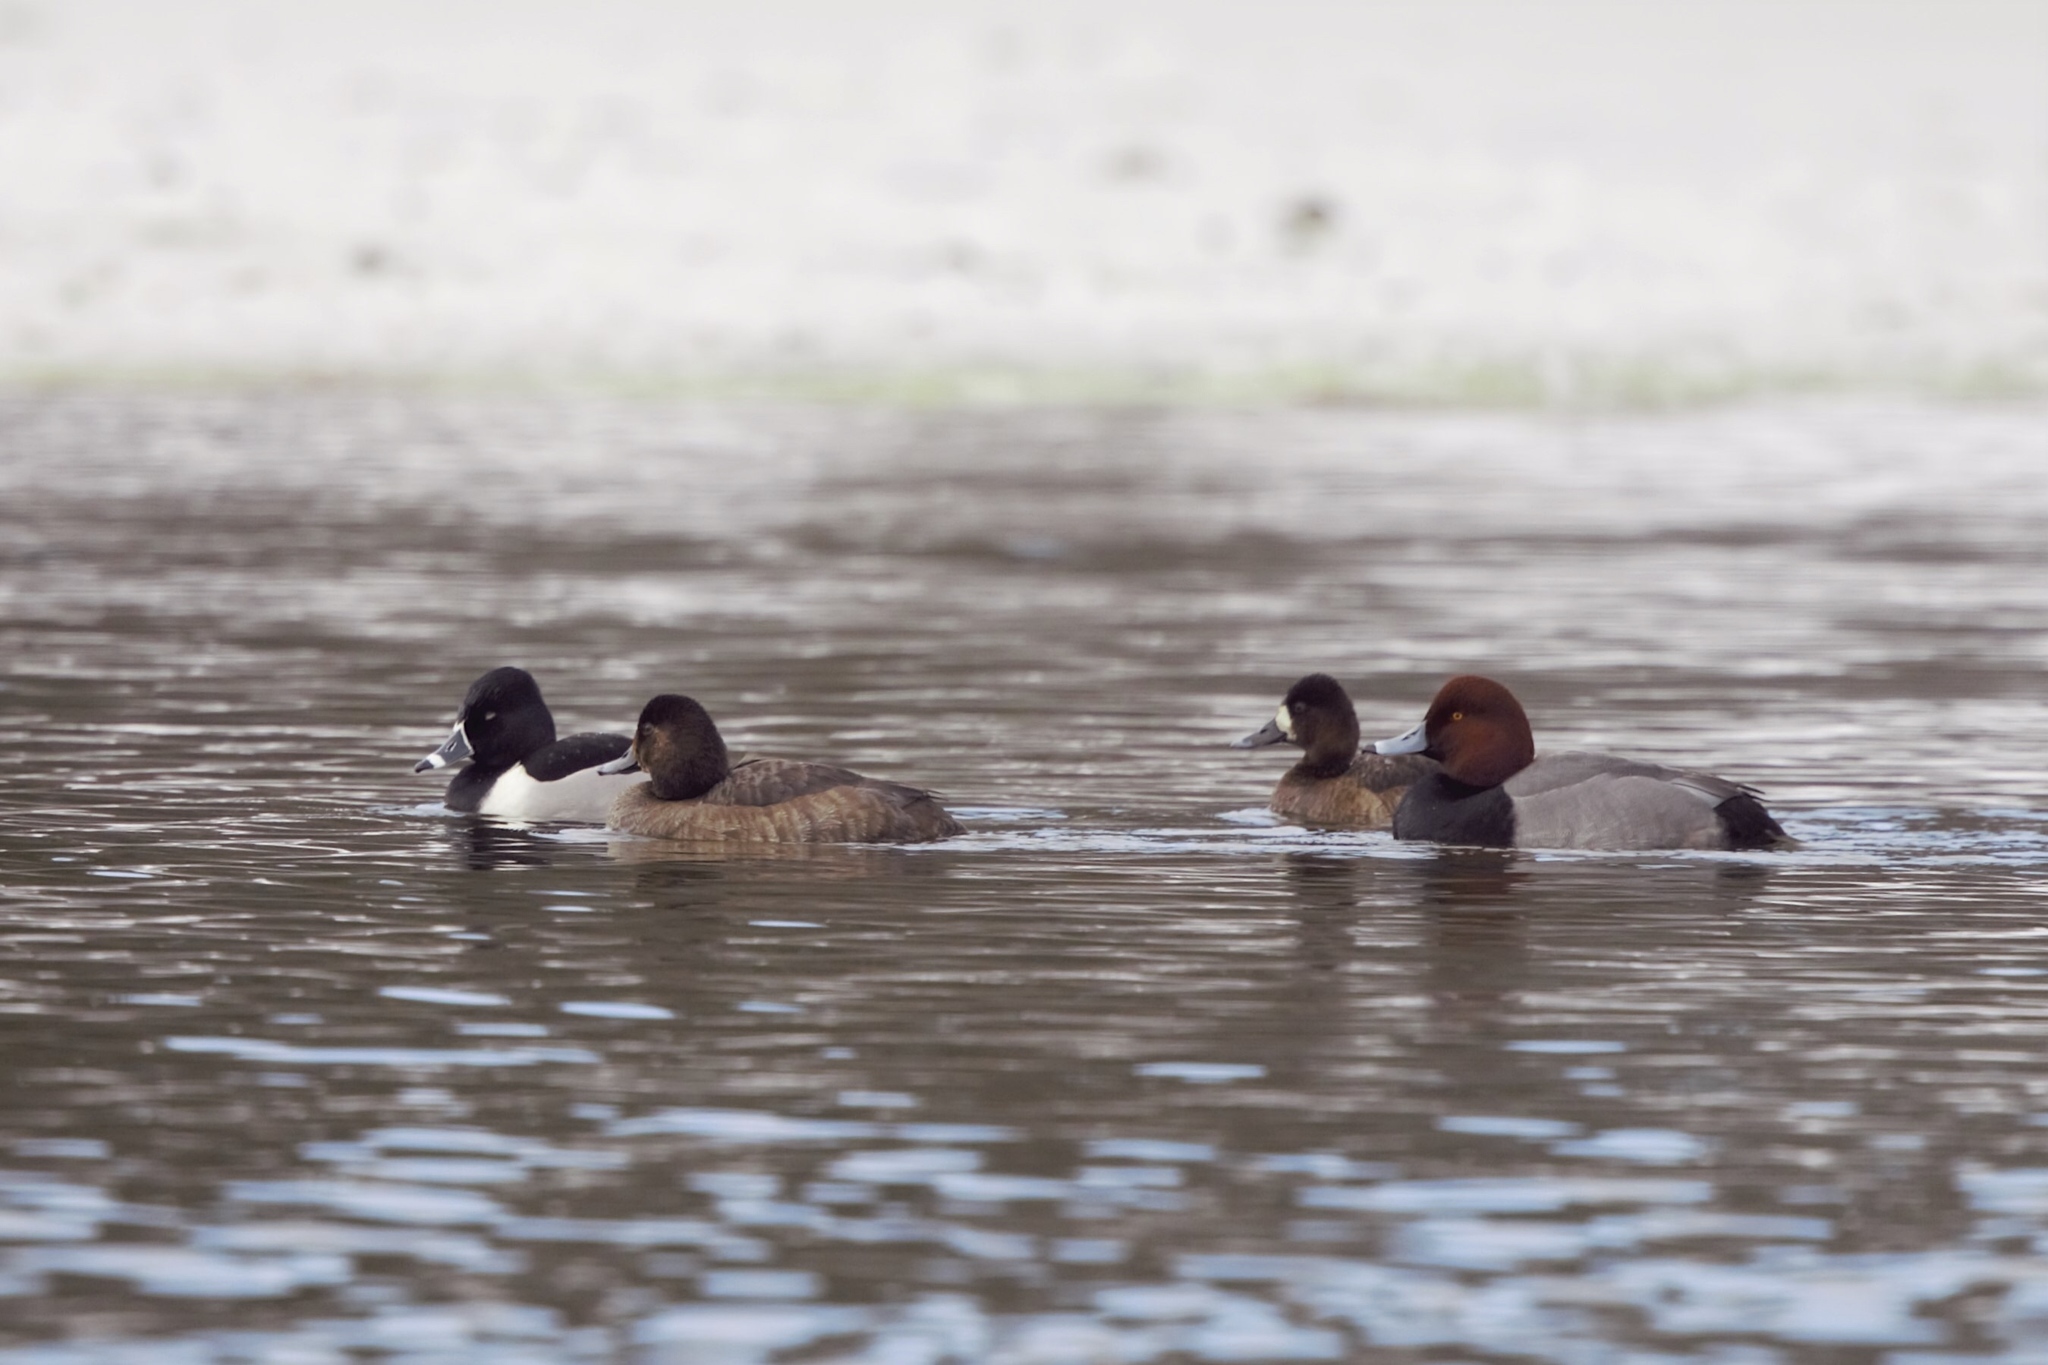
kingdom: Animalia
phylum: Chordata
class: Aves
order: Anseriformes
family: Anatidae
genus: Aythya
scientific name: Aythya americana
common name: Redhead
